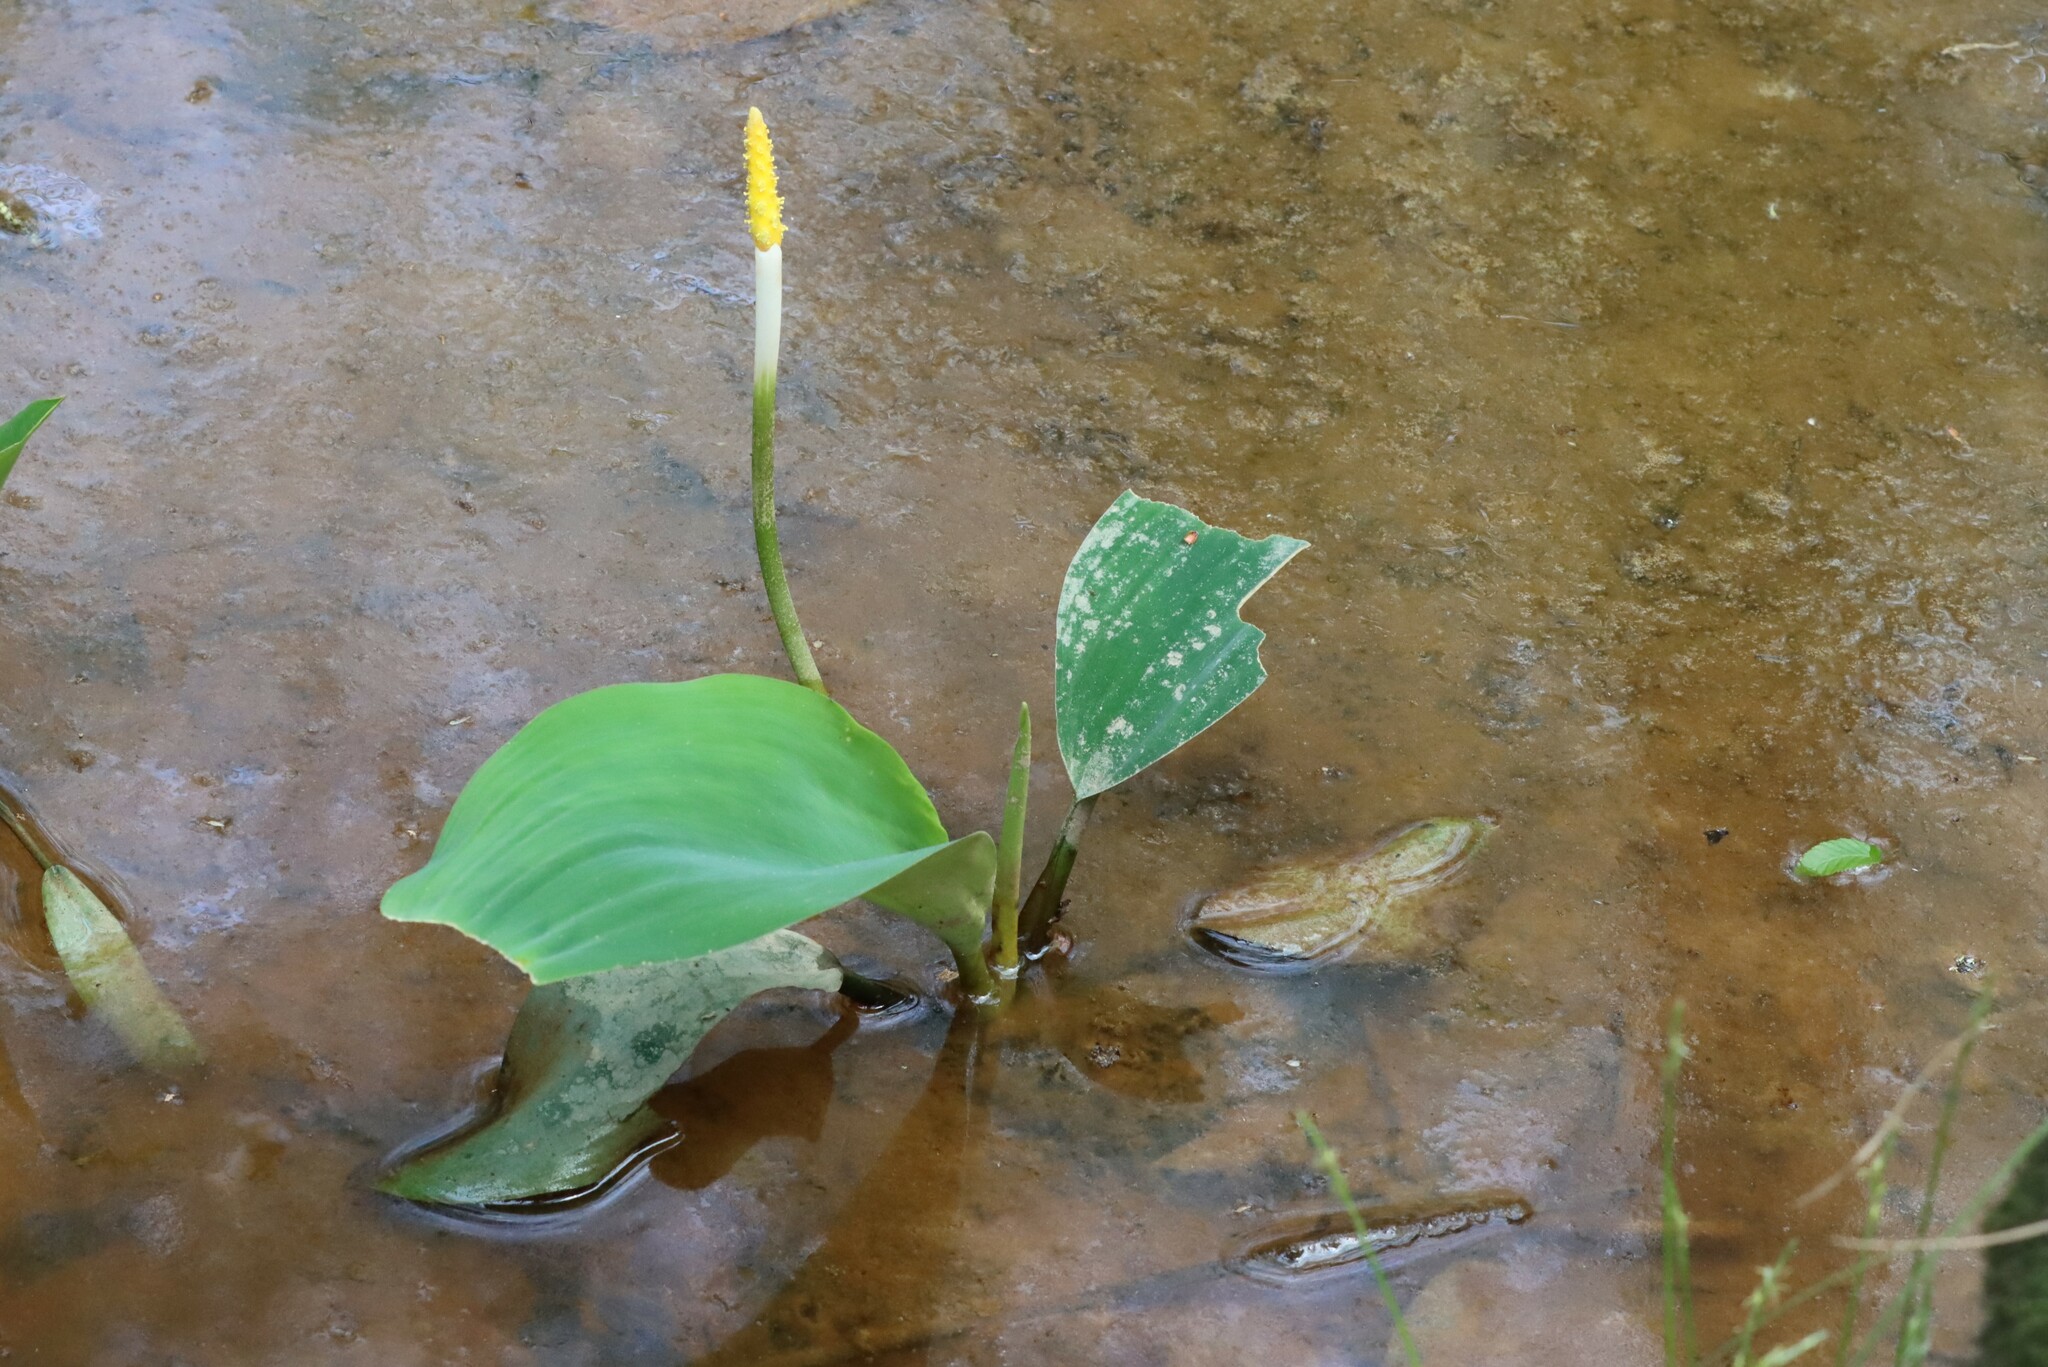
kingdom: Plantae
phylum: Tracheophyta
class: Liliopsida
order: Alismatales
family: Araceae
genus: Orontium
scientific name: Orontium aquaticum
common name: Golden-club
